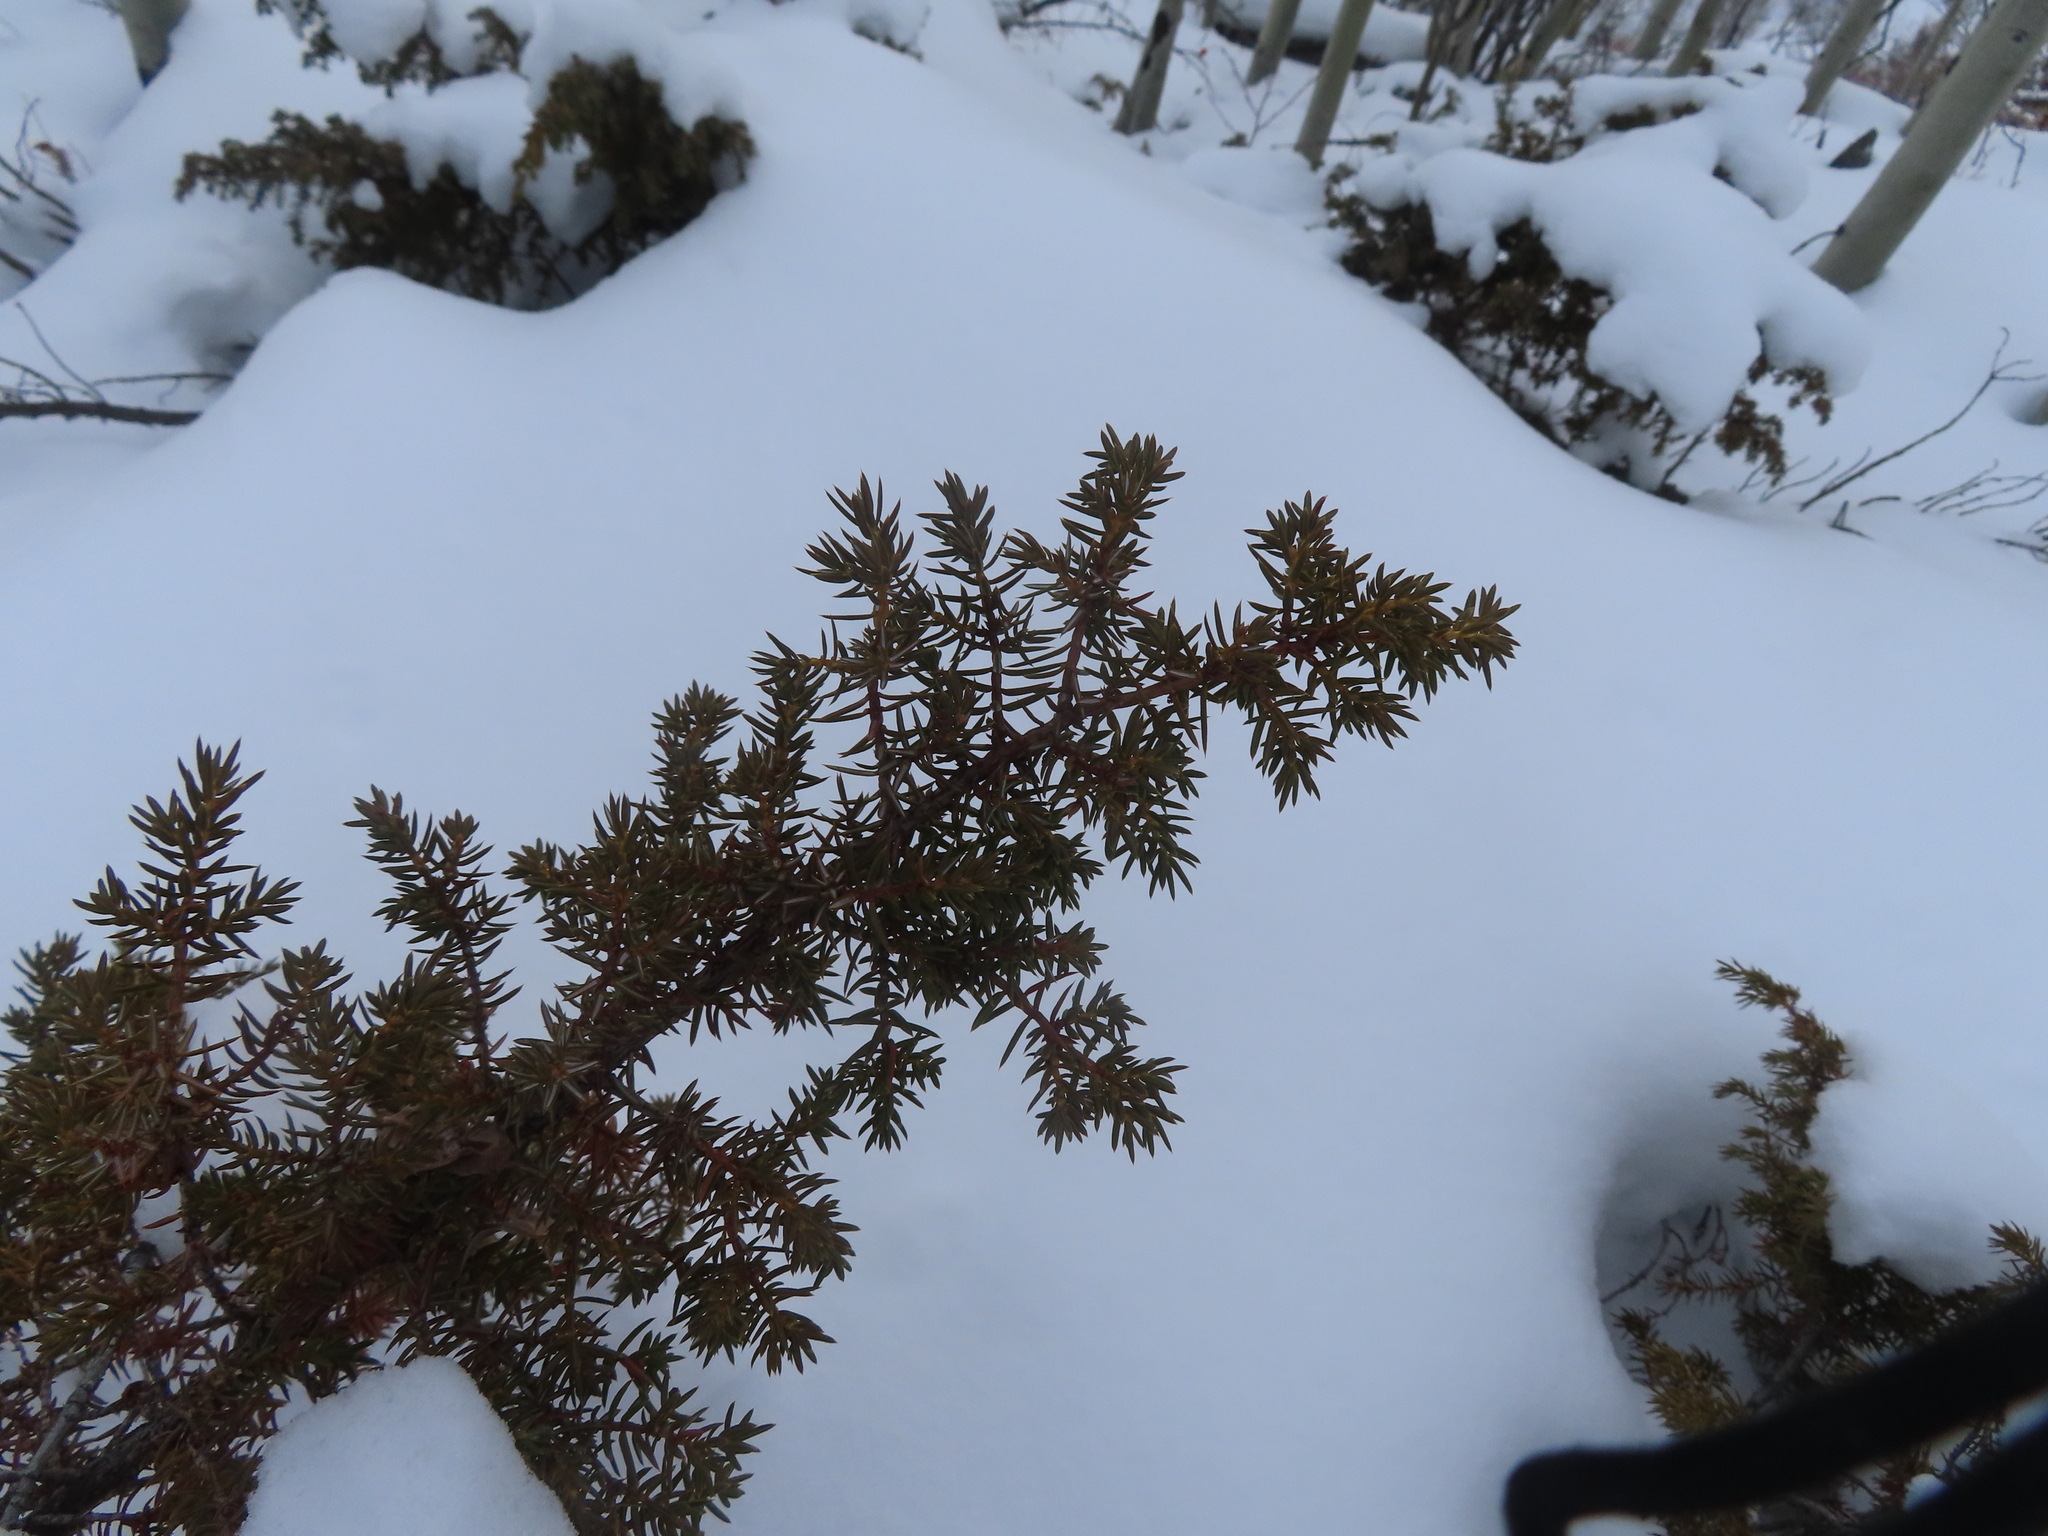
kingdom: Plantae
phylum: Tracheophyta
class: Pinopsida
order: Pinales
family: Cupressaceae
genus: Juniperus
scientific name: Juniperus communis
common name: Common juniper
